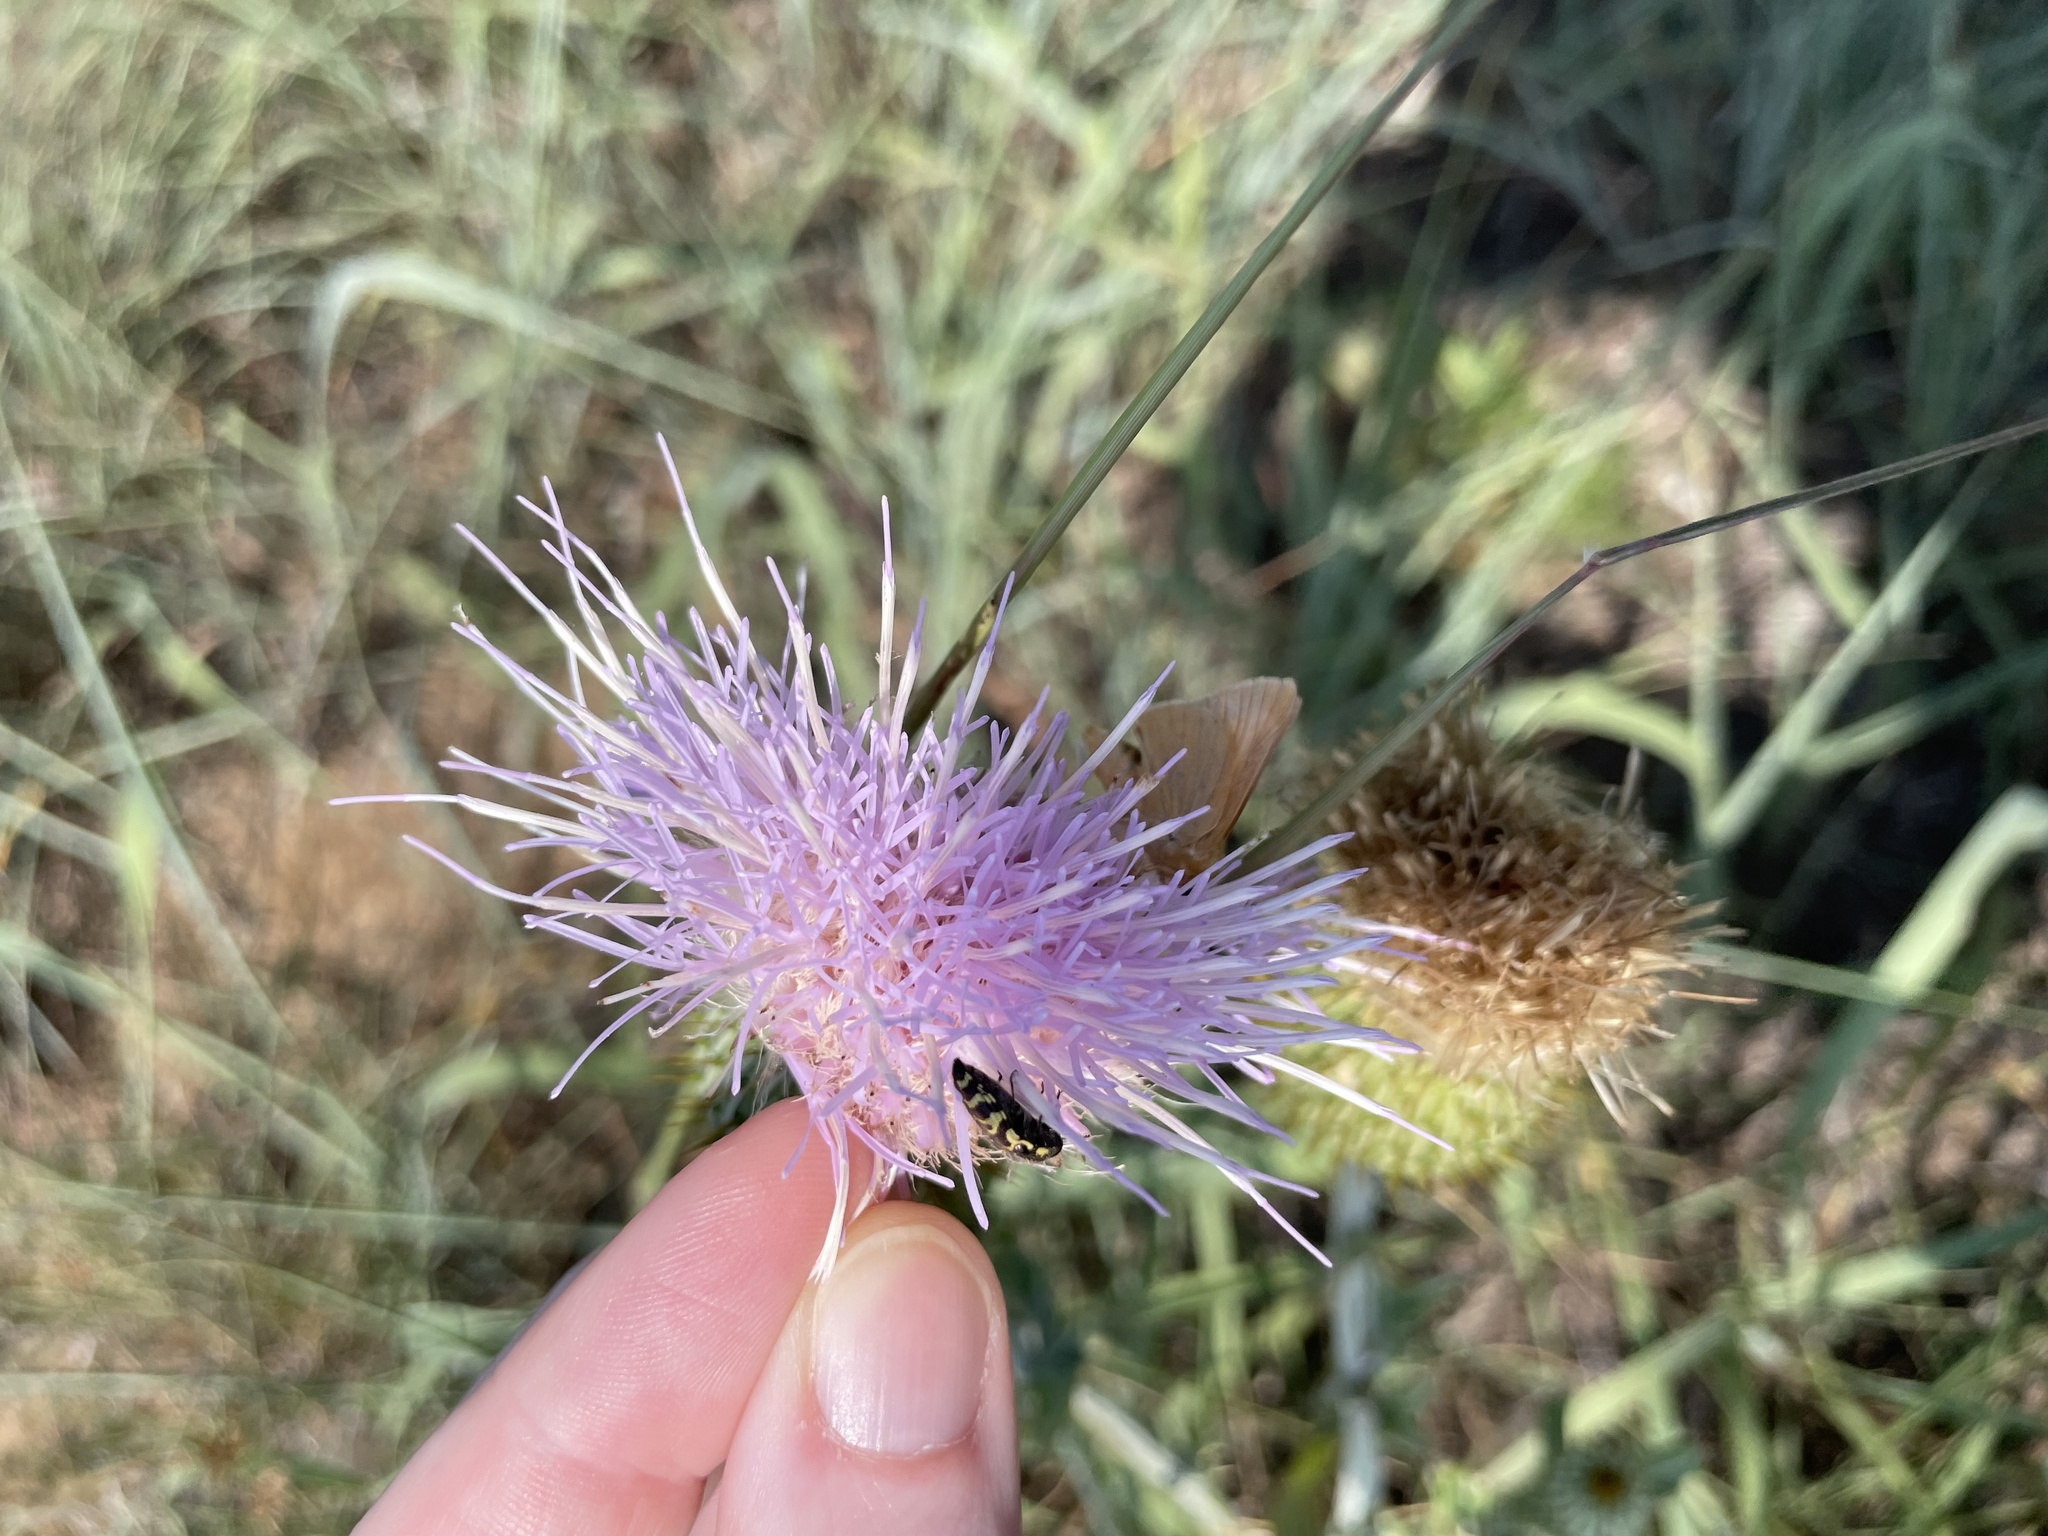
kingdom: Animalia
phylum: Arthropoda
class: Insecta
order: Coleoptera
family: Buprestidae
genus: Acmaeodera
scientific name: Acmaeodera mixta
